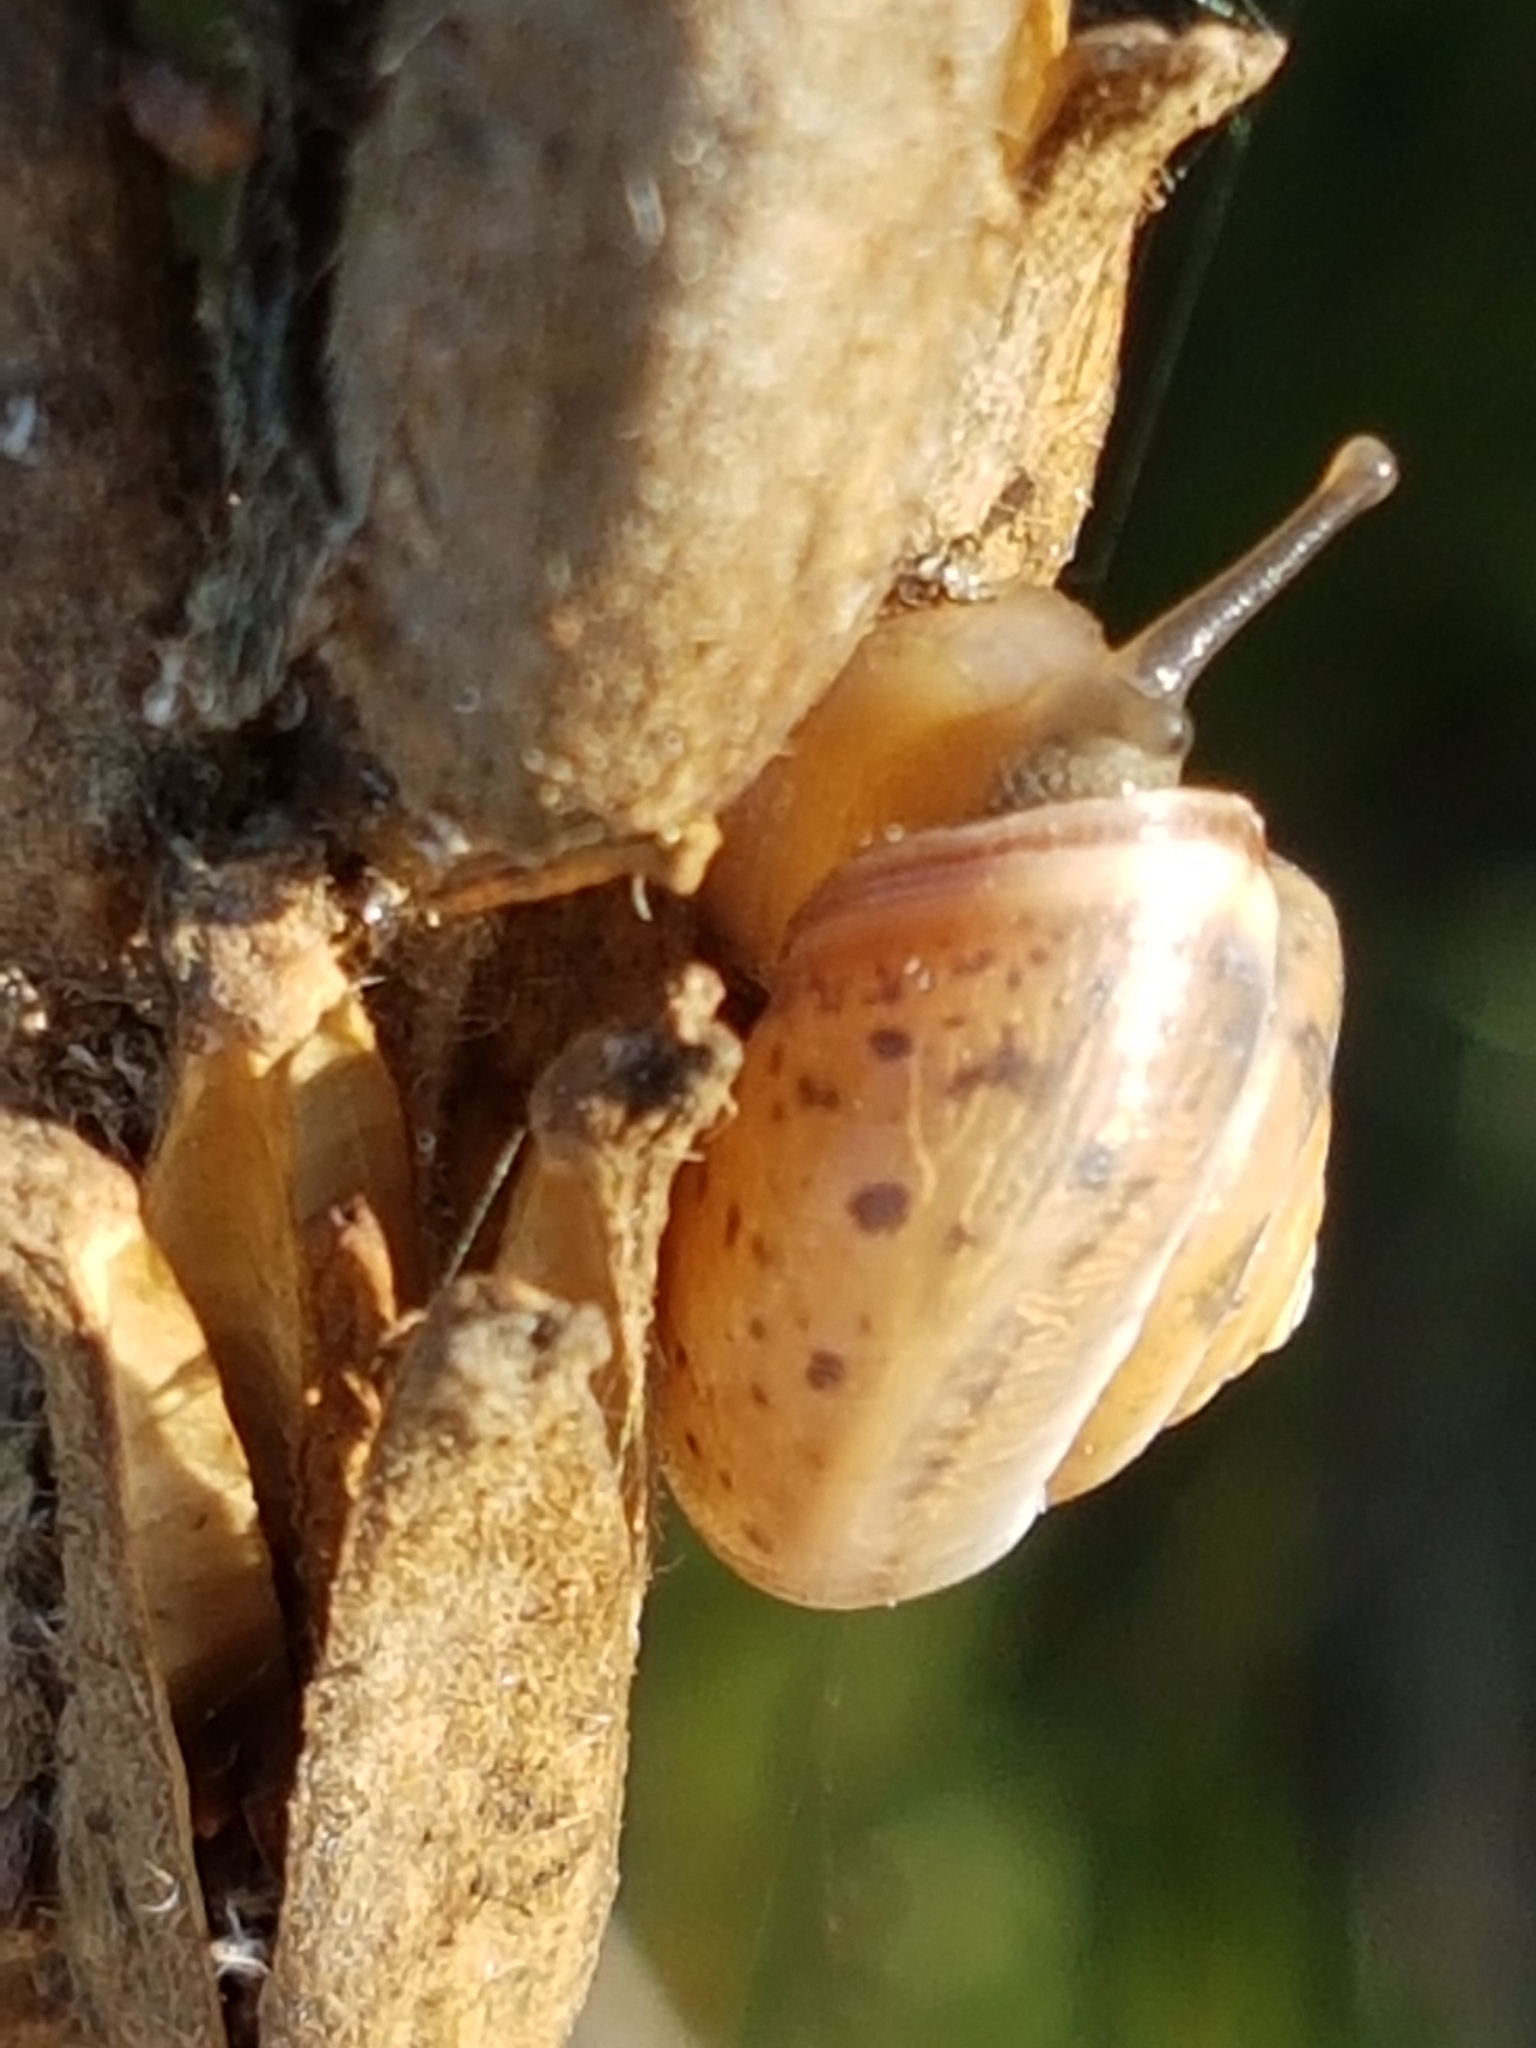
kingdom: Animalia
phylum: Mollusca
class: Gastropoda
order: Stylommatophora
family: Hygromiidae
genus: Monacha
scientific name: Monacha cartusiana
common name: Carthusian snail
